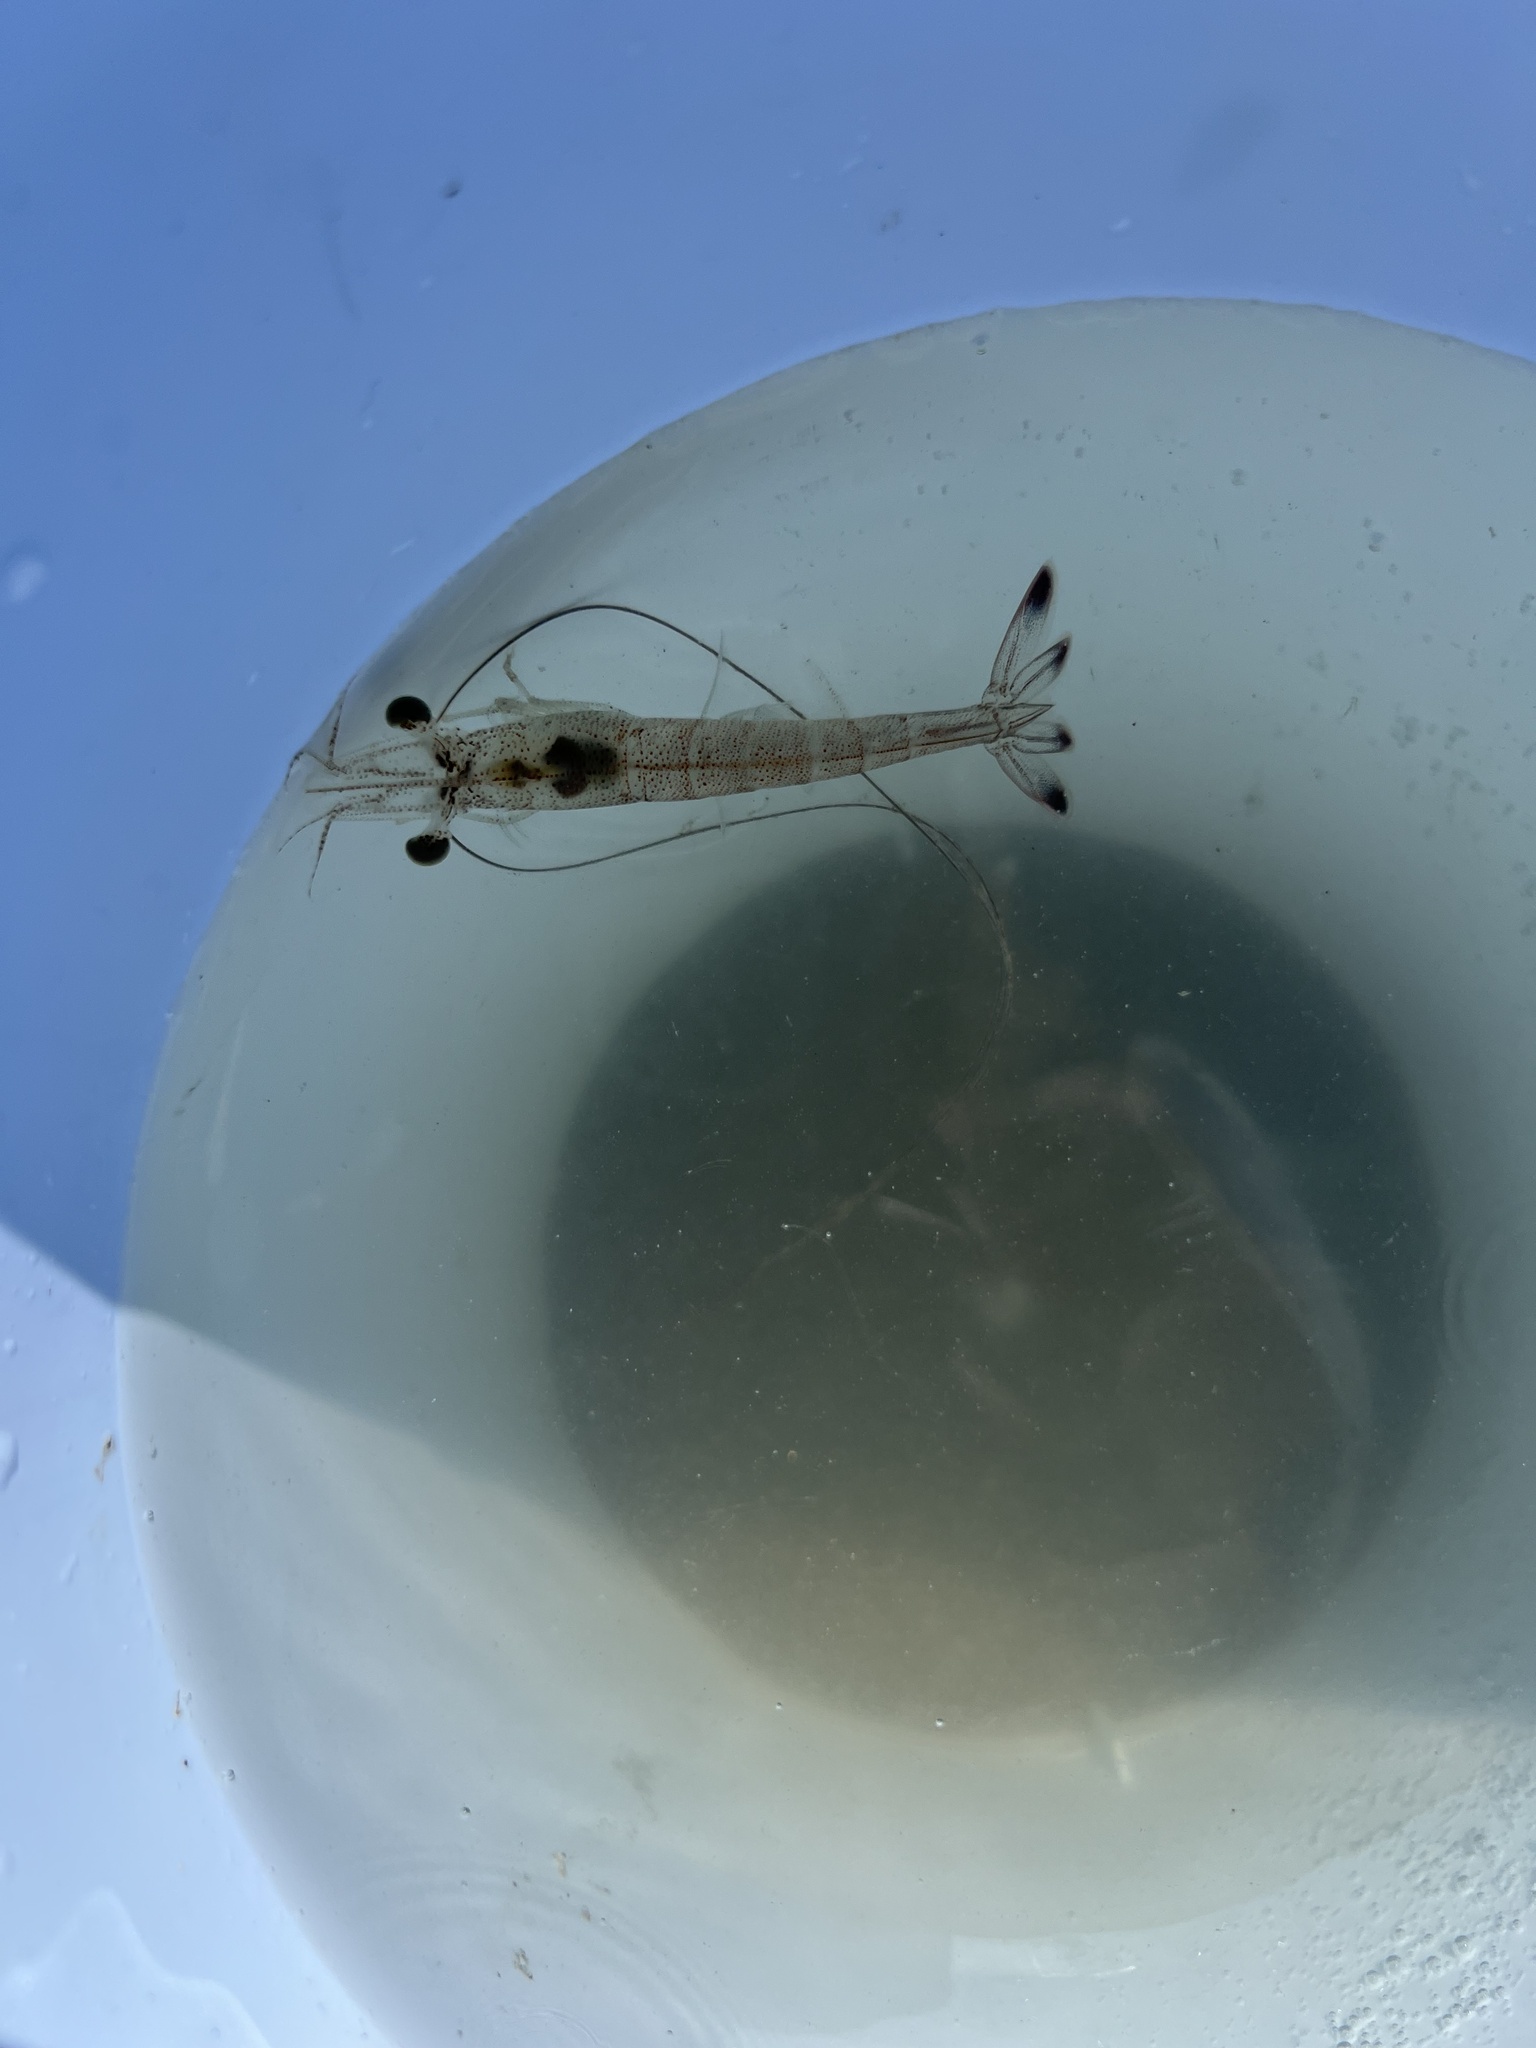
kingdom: Animalia
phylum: Arthropoda
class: Malacostraca
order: Decapoda
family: Penaeidae
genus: Penaeus
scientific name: Penaeus setiferus
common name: Northern white shrimp
